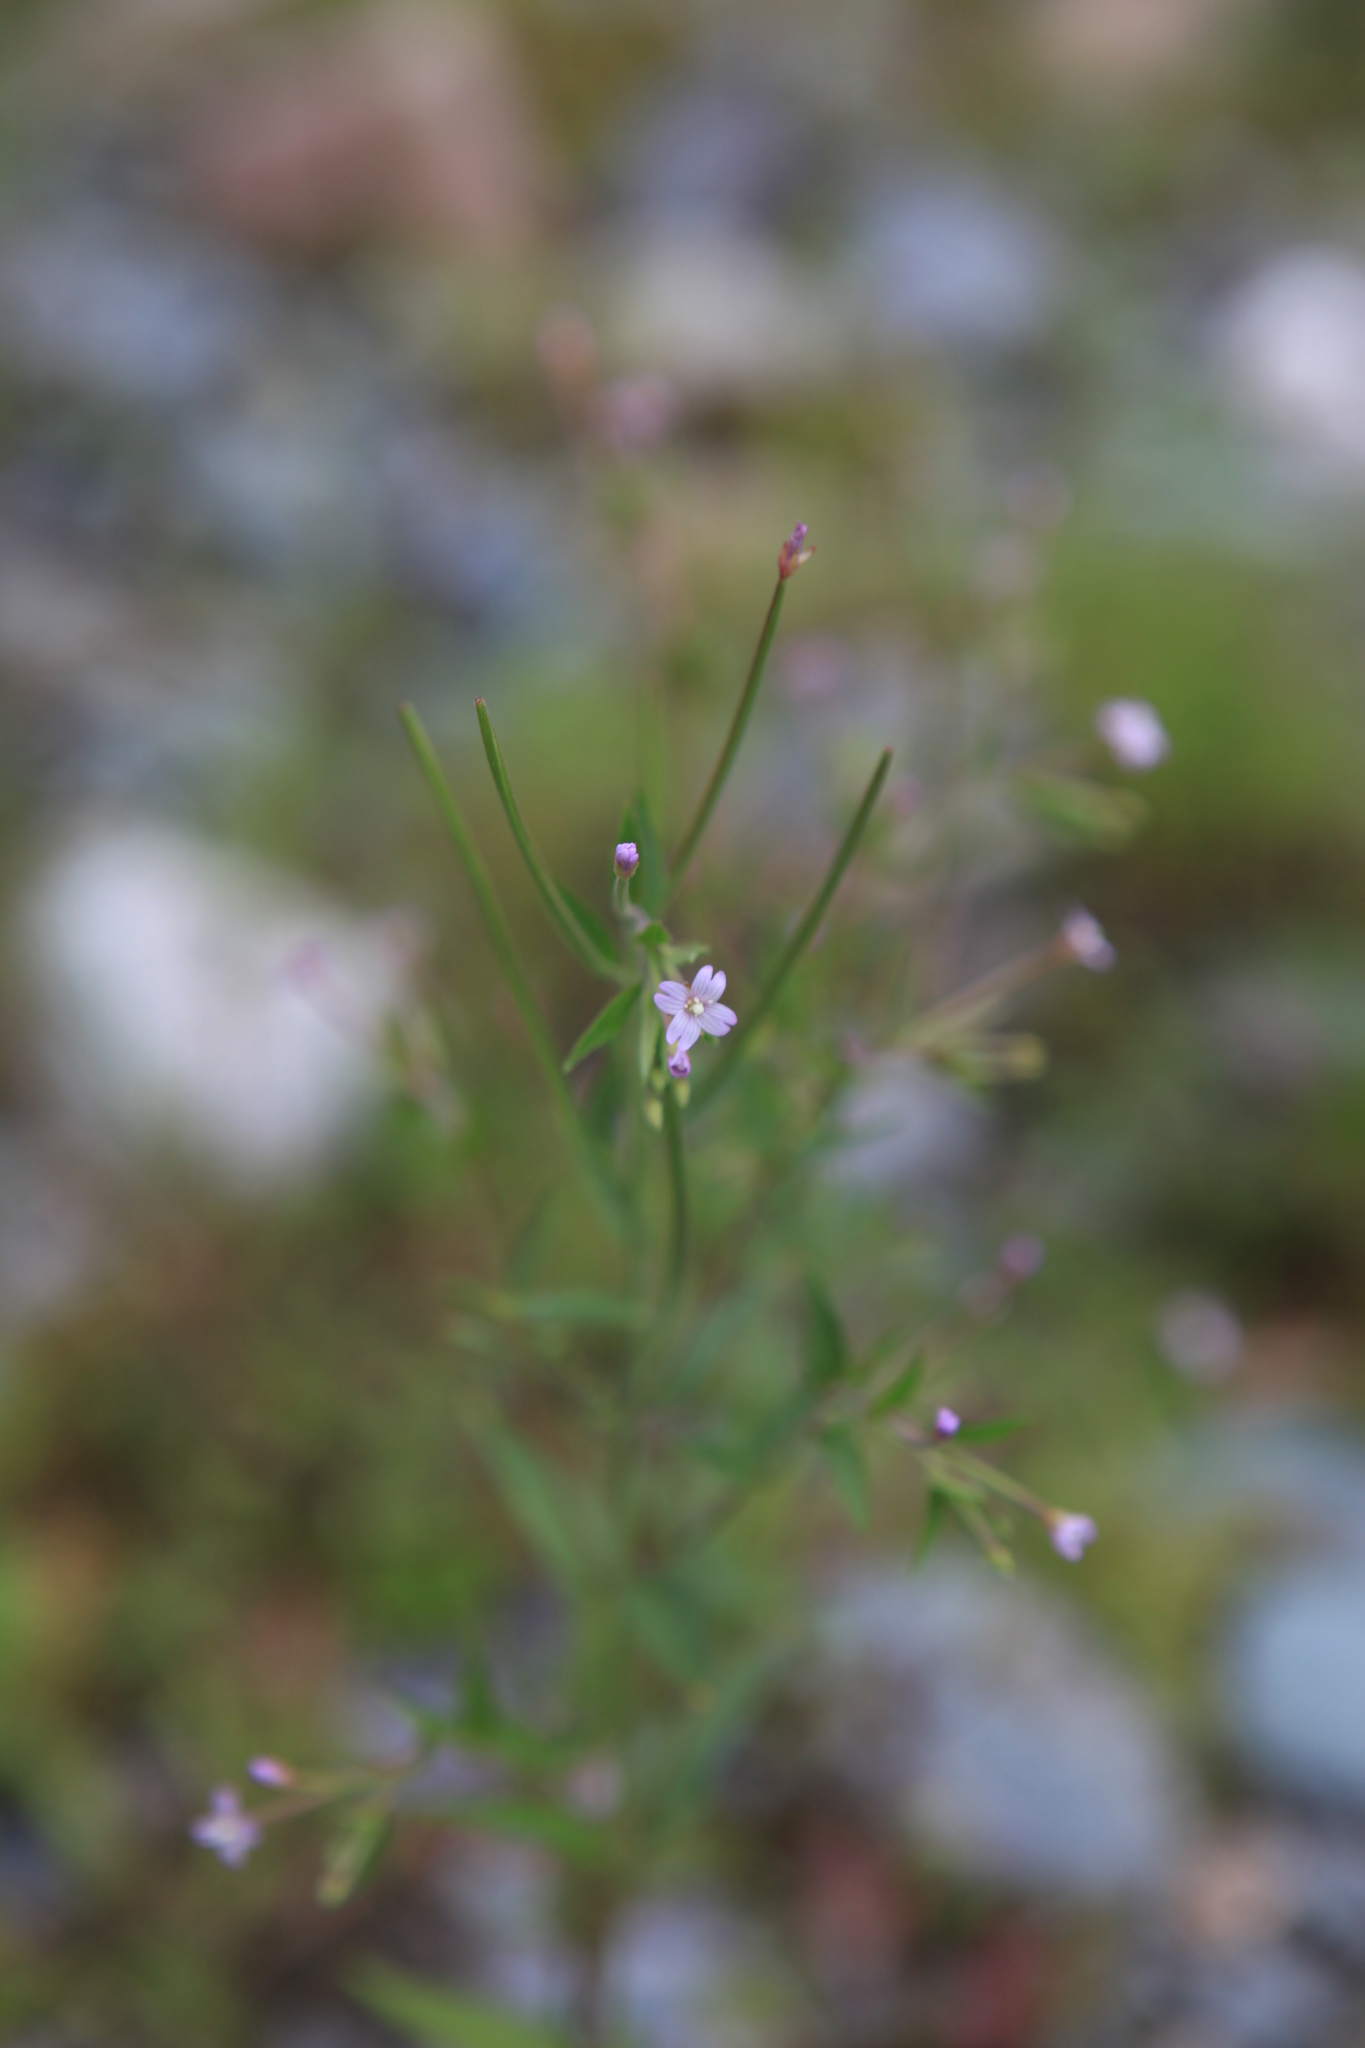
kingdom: Plantae
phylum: Tracheophyta
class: Magnoliopsida
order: Myrtales
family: Onagraceae
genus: Epilobium
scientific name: Epilobium ciliatum
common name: American willowherb
